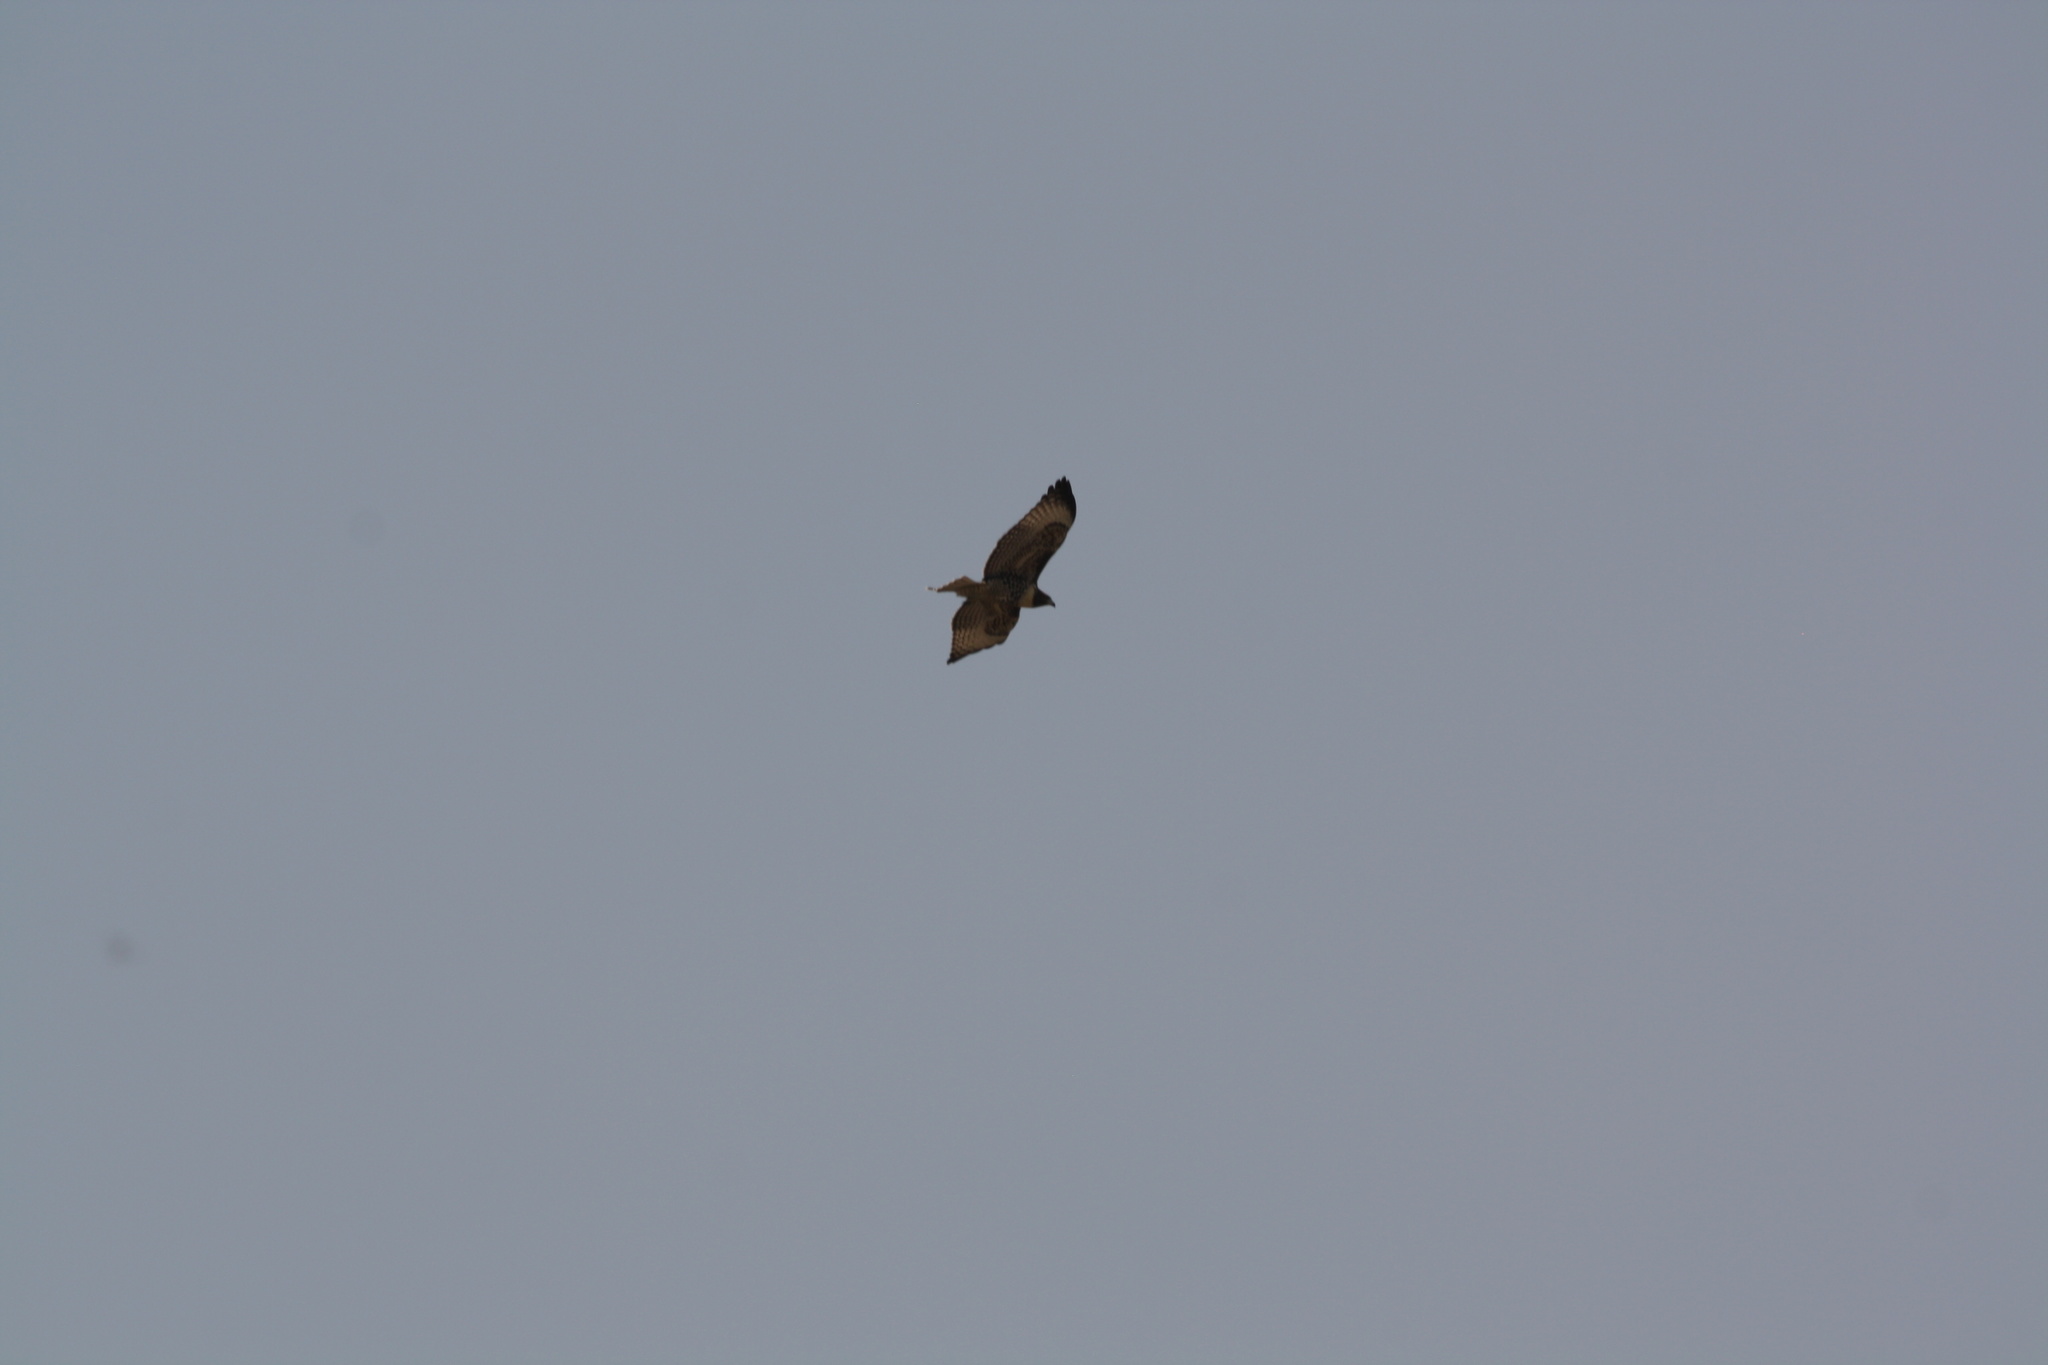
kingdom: Animalia
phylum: Chordata
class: Aves
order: Accipitriformes
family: Accipitridae
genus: Buteo
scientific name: Buteo jamaicensis
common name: Red-tailed hawk
